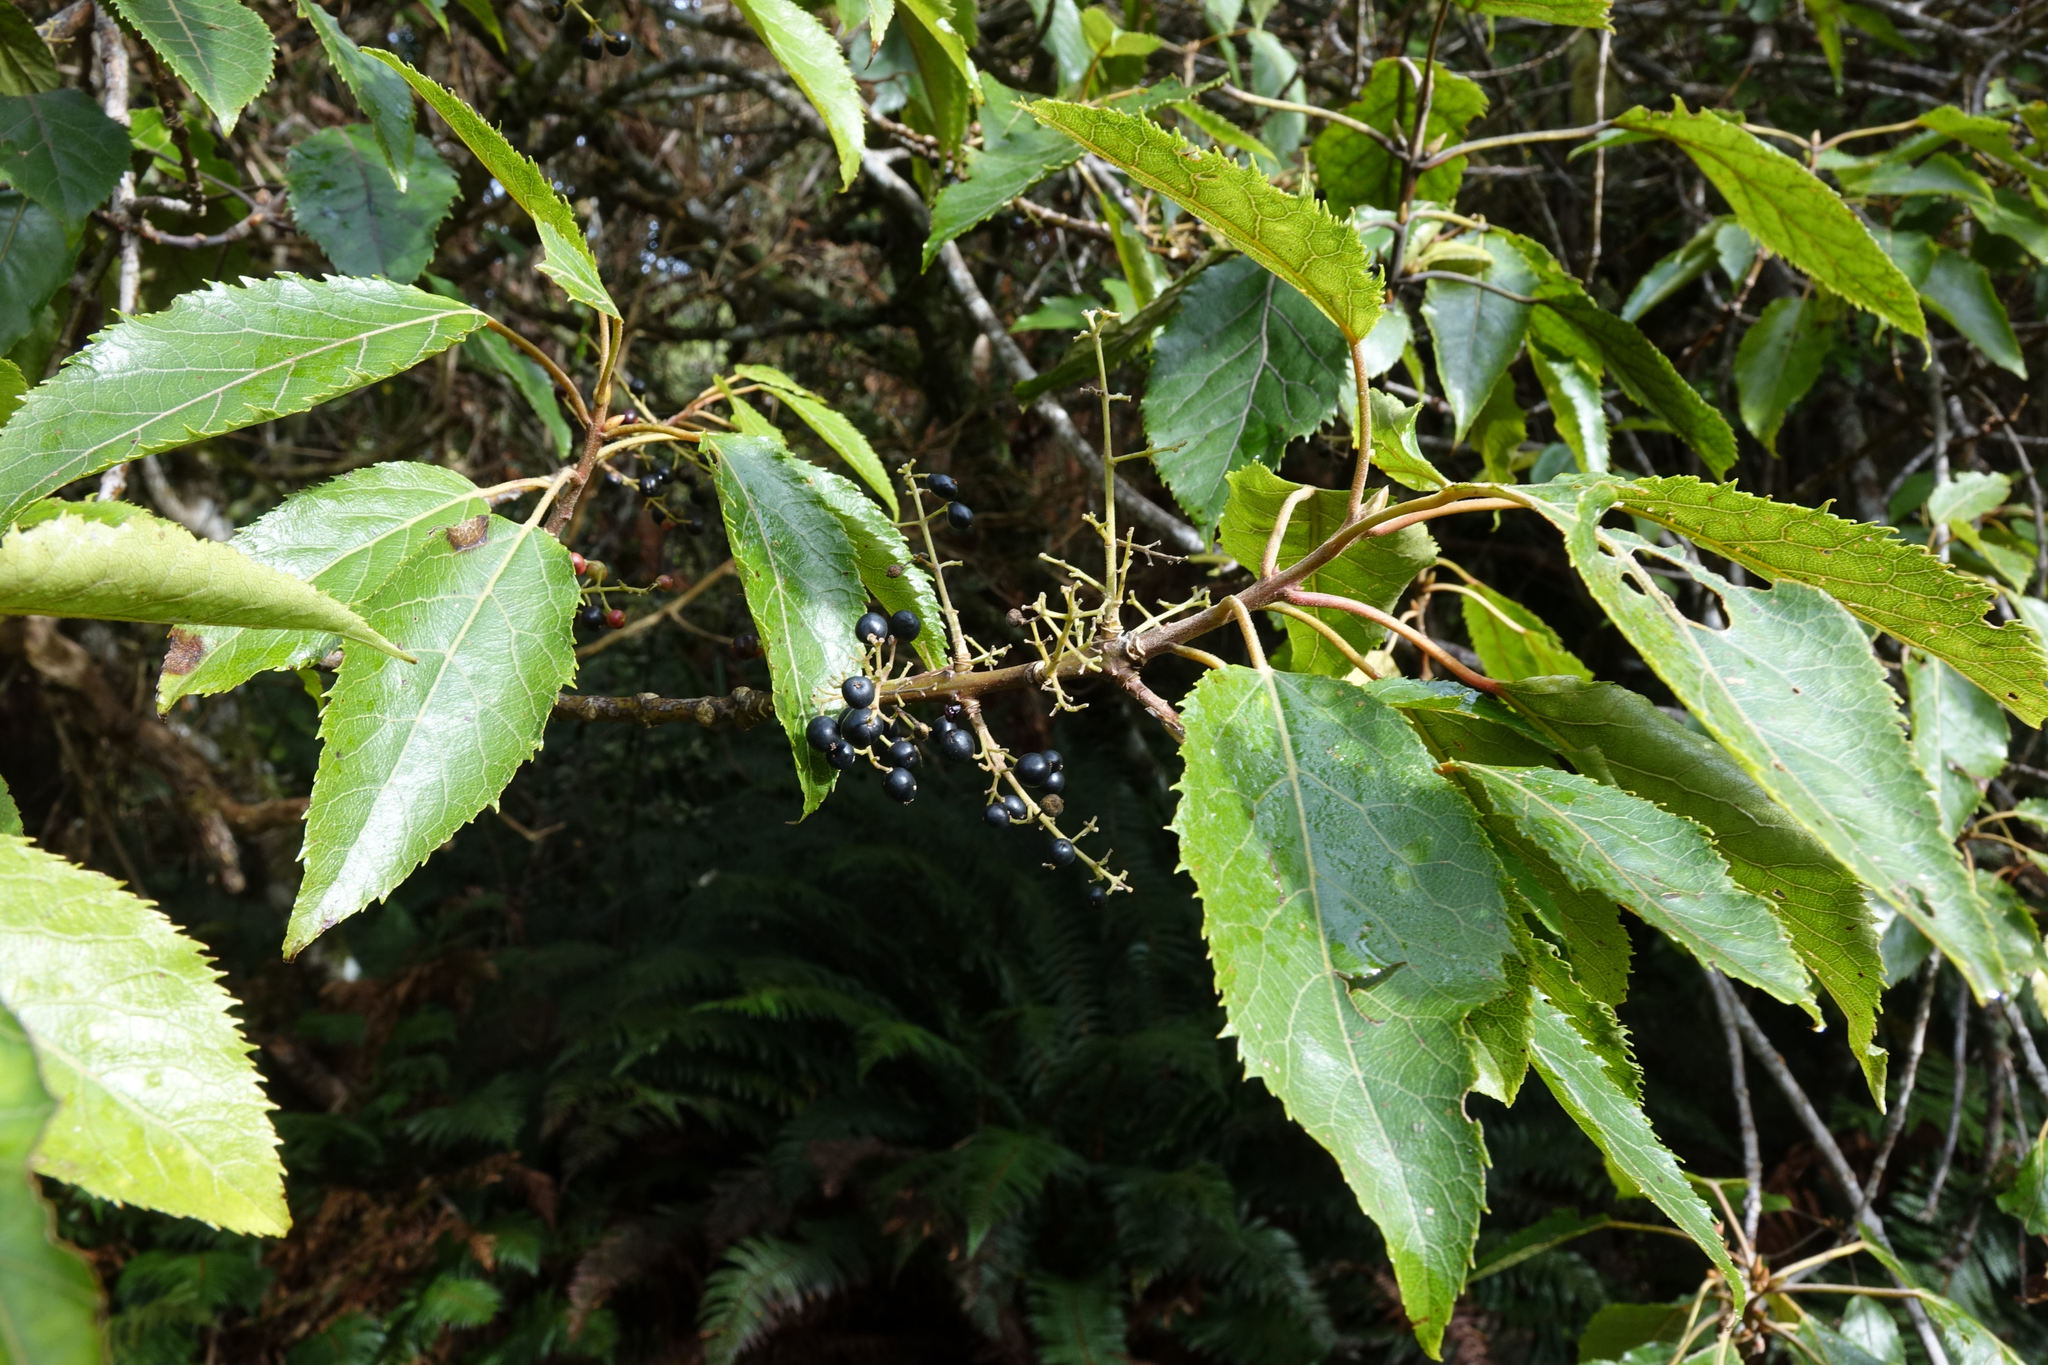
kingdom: Plantae
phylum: Tracheophyta
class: Magnoliopsida
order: Oxalidales
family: Elaeocarpaceae
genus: Aristotelia
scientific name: Aristotelia serrata
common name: New zealand wineberry
